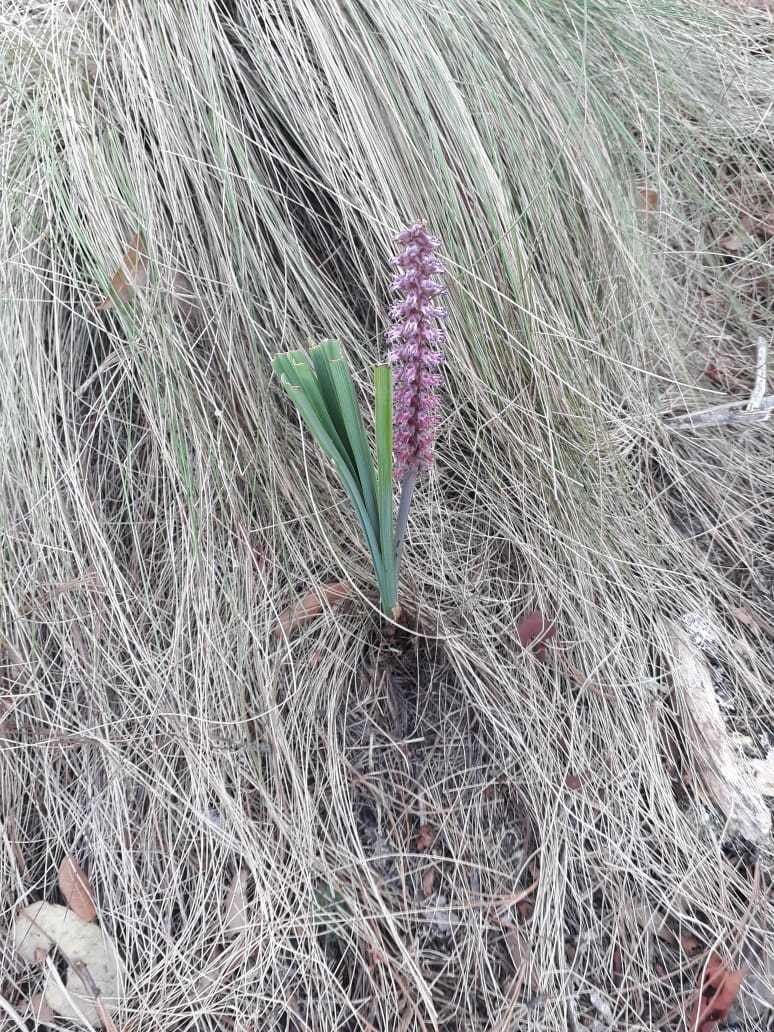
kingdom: Plantae
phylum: Tracheophyta
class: Liliopsida
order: Liliales
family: Melanthiaceae
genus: Schoenocaulon
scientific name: Schoenocaulon tenuifolium
